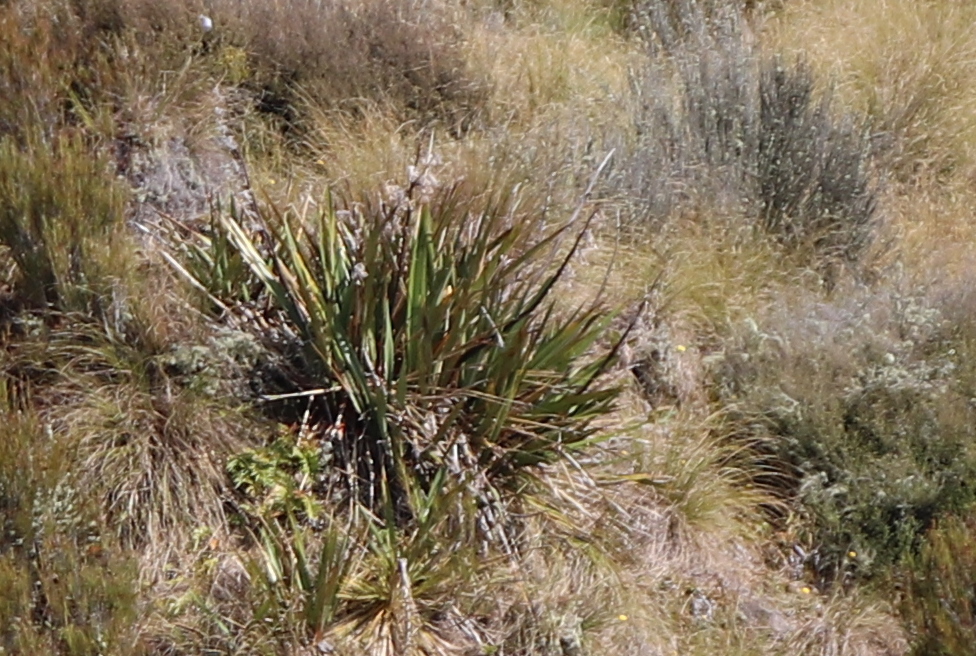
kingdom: Plantae
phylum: Tracheophyta
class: Liliopsida
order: Asparagales
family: Asphodelaceae
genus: Phormium
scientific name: Phormium tenax
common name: New zealand flax
